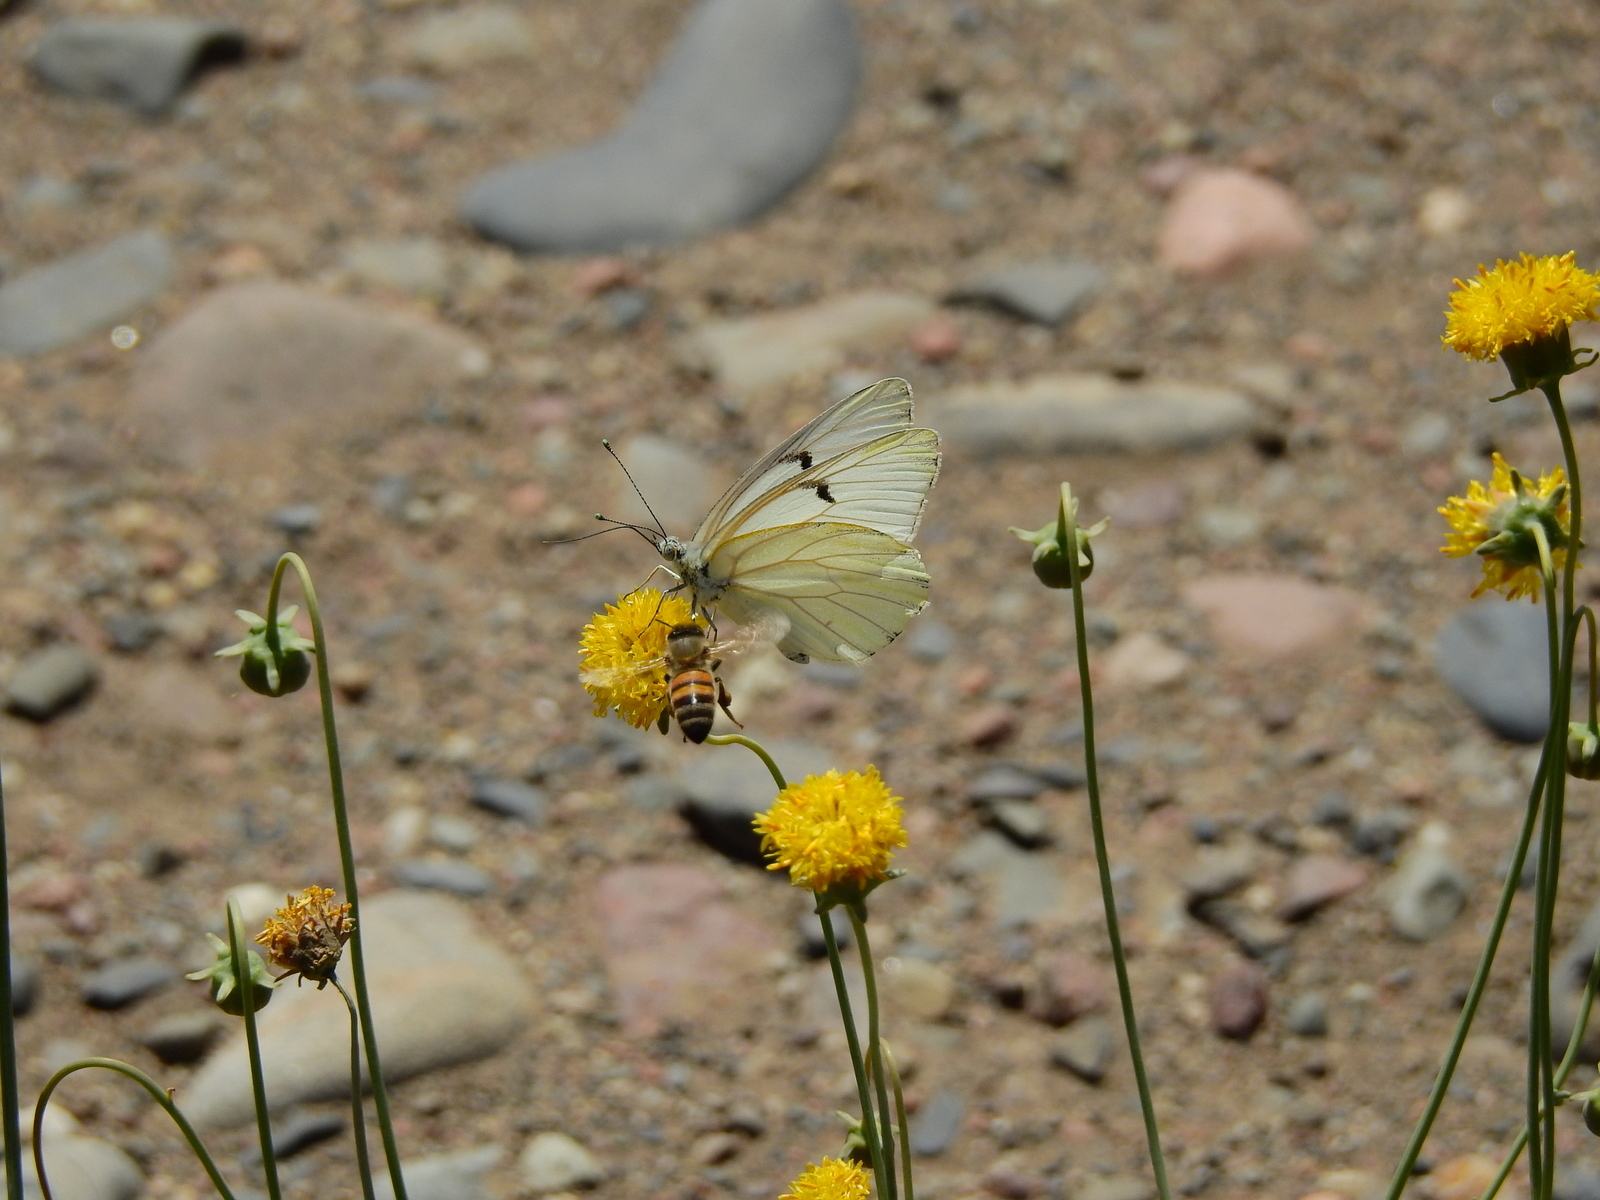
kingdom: Plantae
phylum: Tracheophyta
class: Magnoliopsida
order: Asterales
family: Asteraceae
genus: Thelesperma
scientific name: Thelesperma megapotamicum
